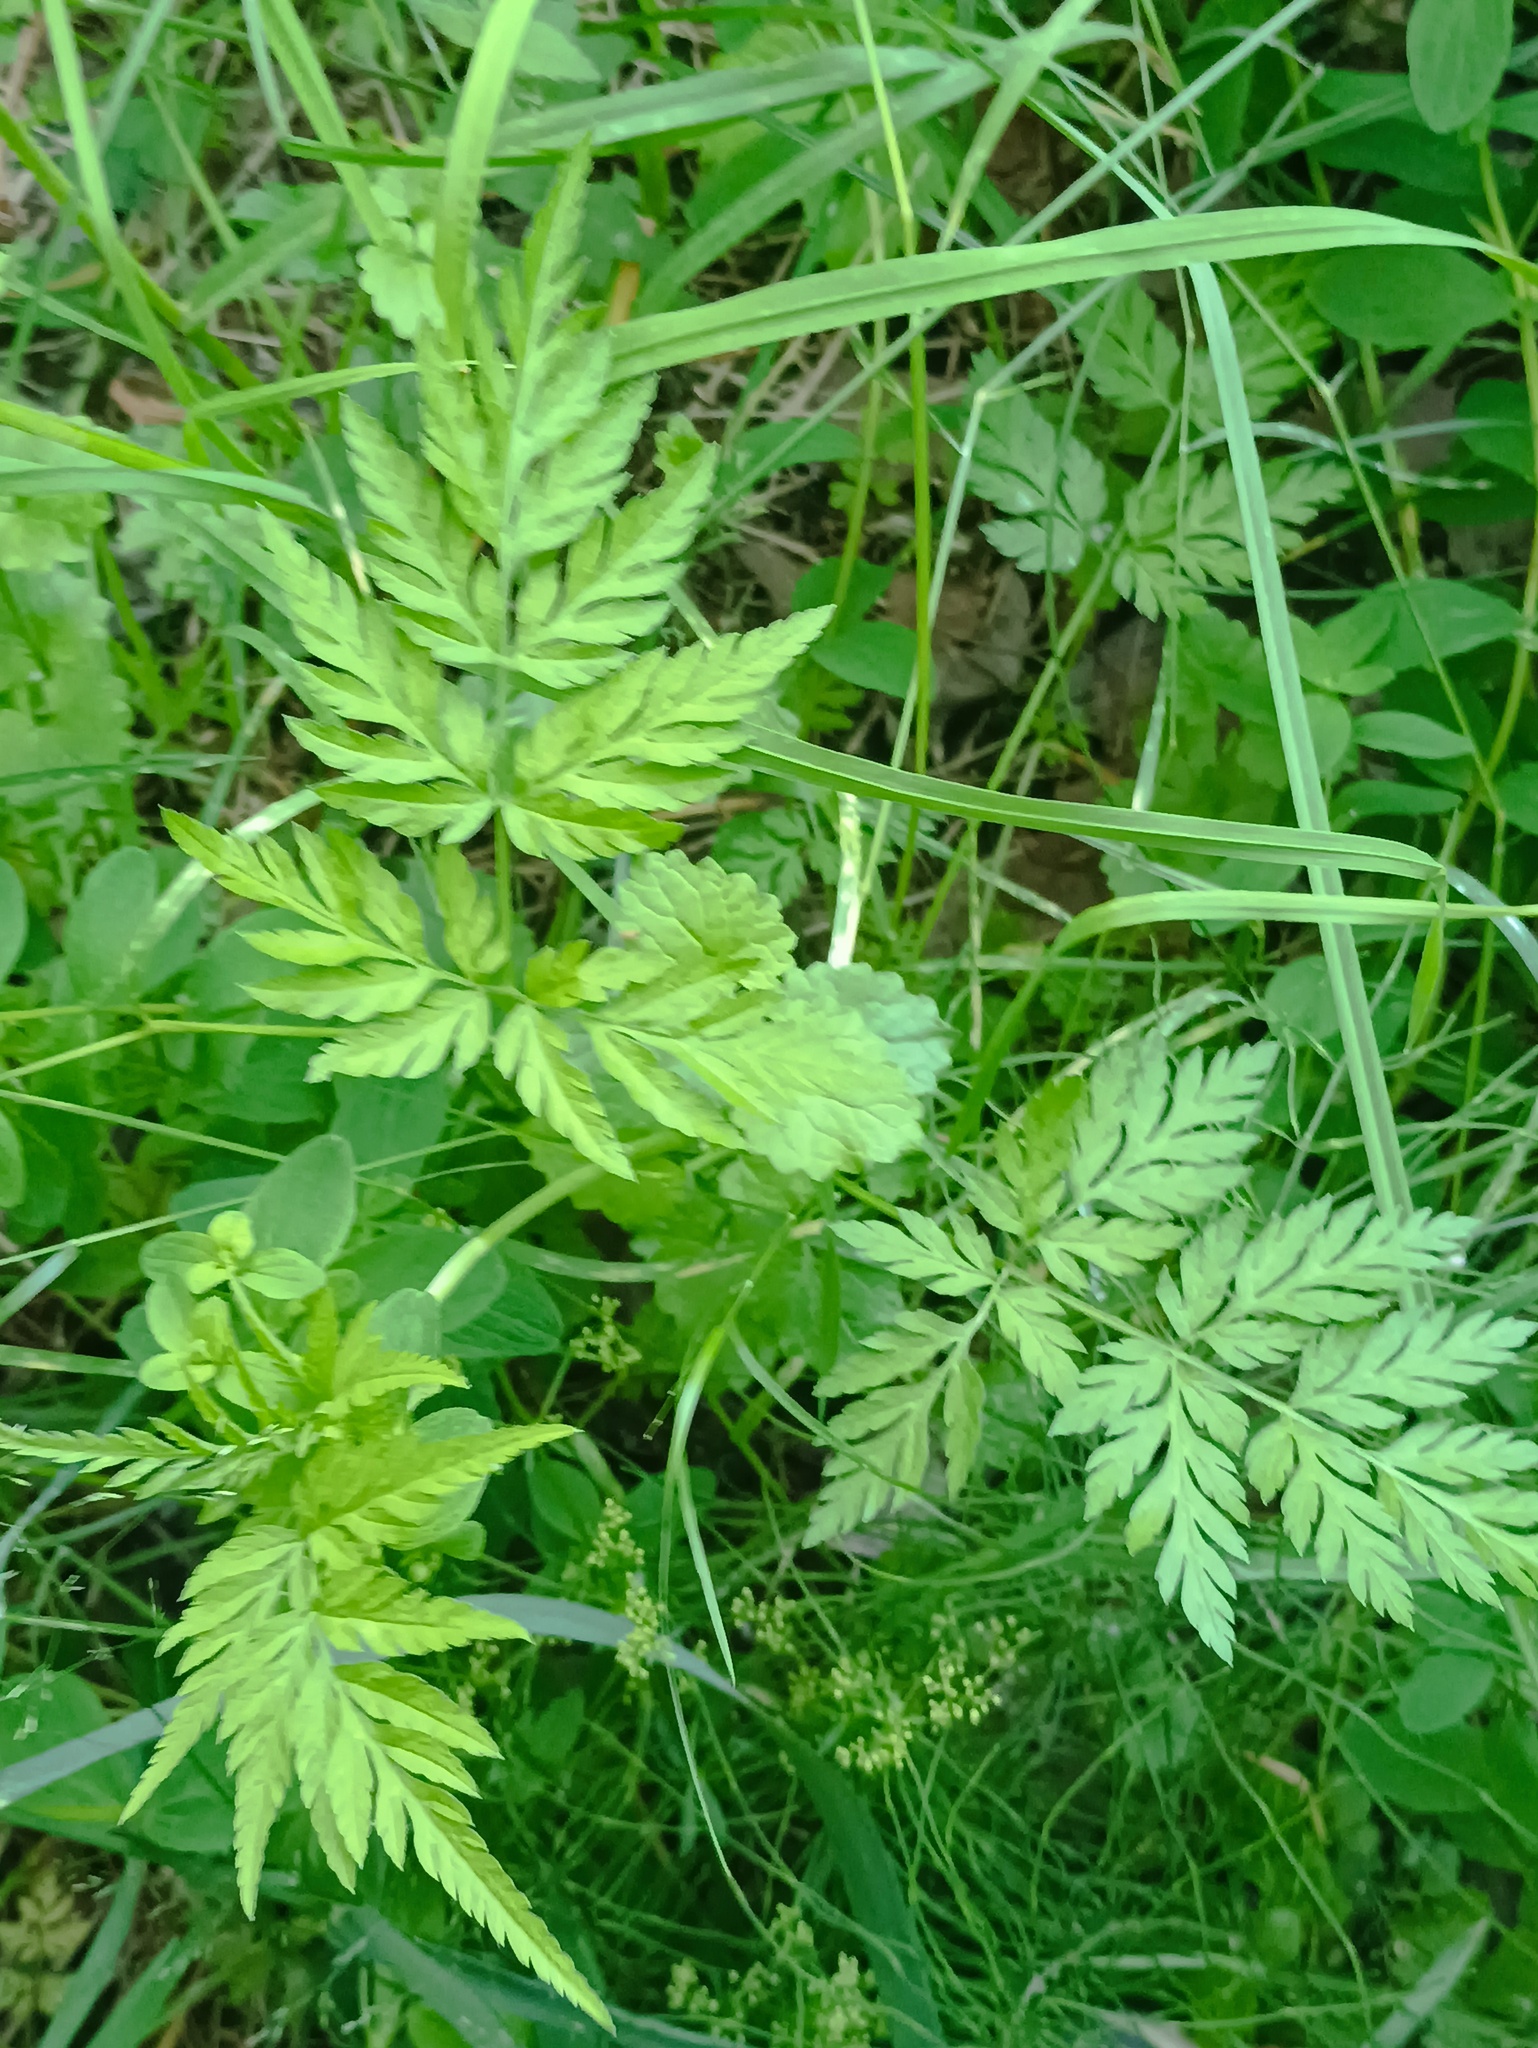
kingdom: Plantae
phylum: Tracheophyta
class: Magnoliopsida
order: Apiales
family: Apiaceae
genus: Torilis
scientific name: Torilis japonica
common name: Upright hedge-parsley
